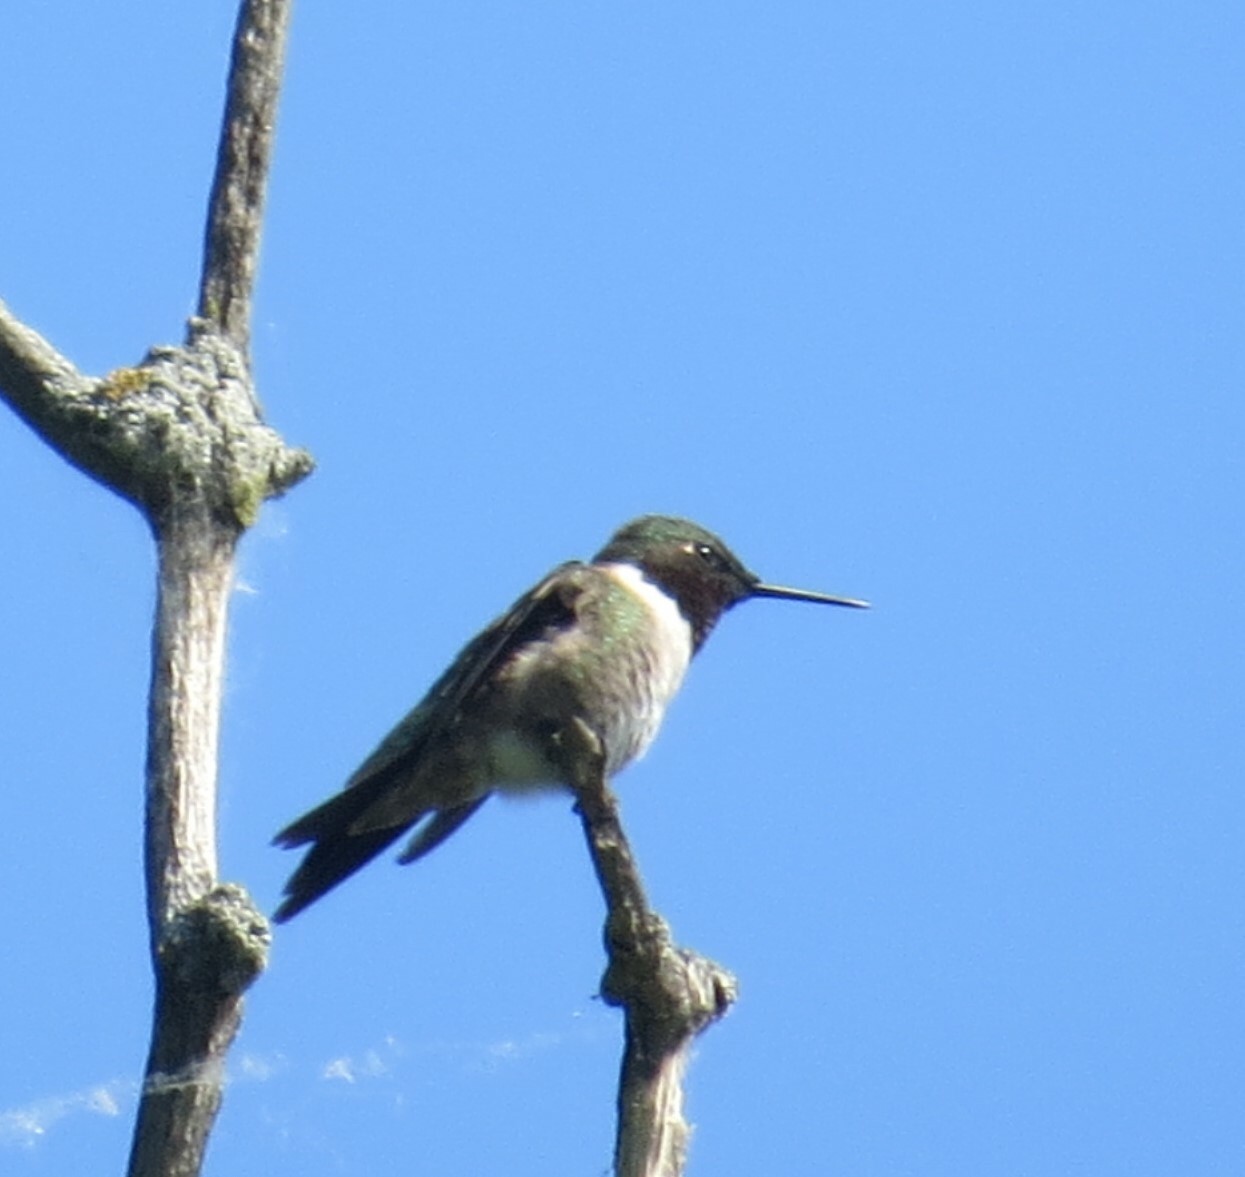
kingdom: Animalia
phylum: Chordata
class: Aves
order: Apodiformes
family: Trochilidae
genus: Archilochus
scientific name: Archilochus colubris
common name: Ruby-throated hummingbird
